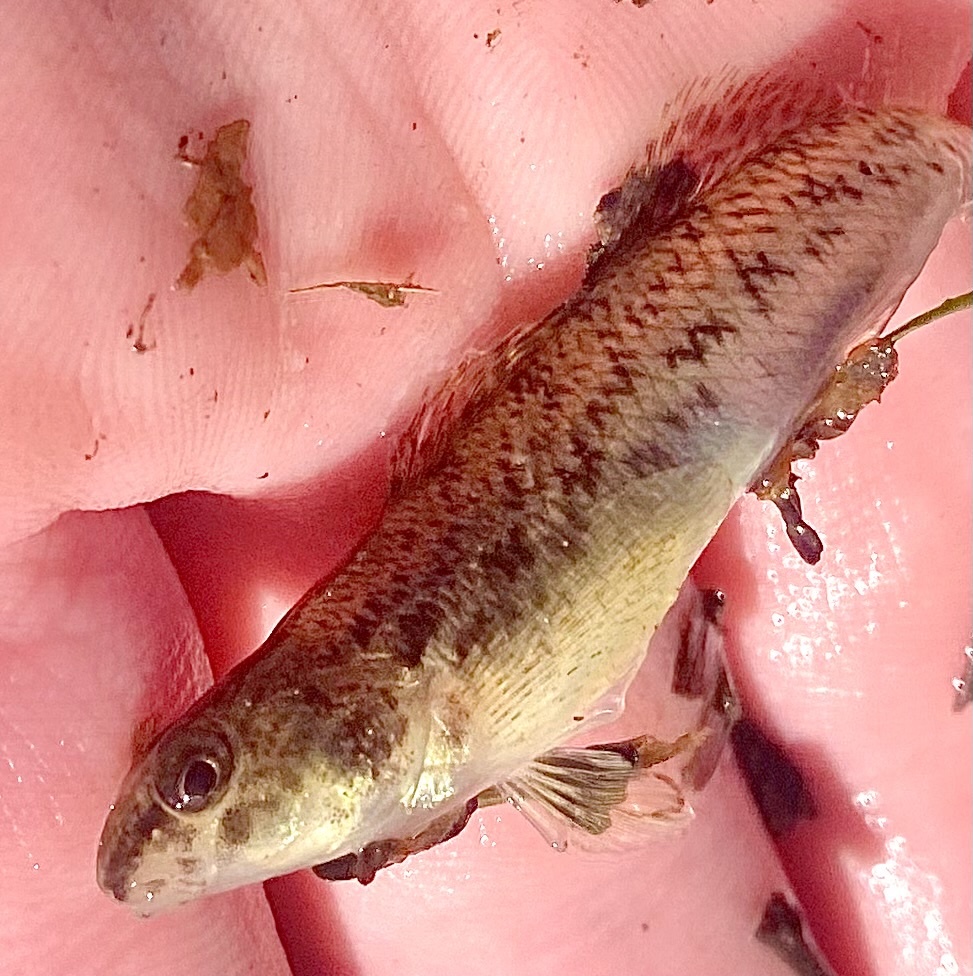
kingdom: Animalia
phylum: Chordata
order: Perciformes
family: Percidae
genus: Etheostoma
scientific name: Etheostoma nigrum
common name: Johnny darter
